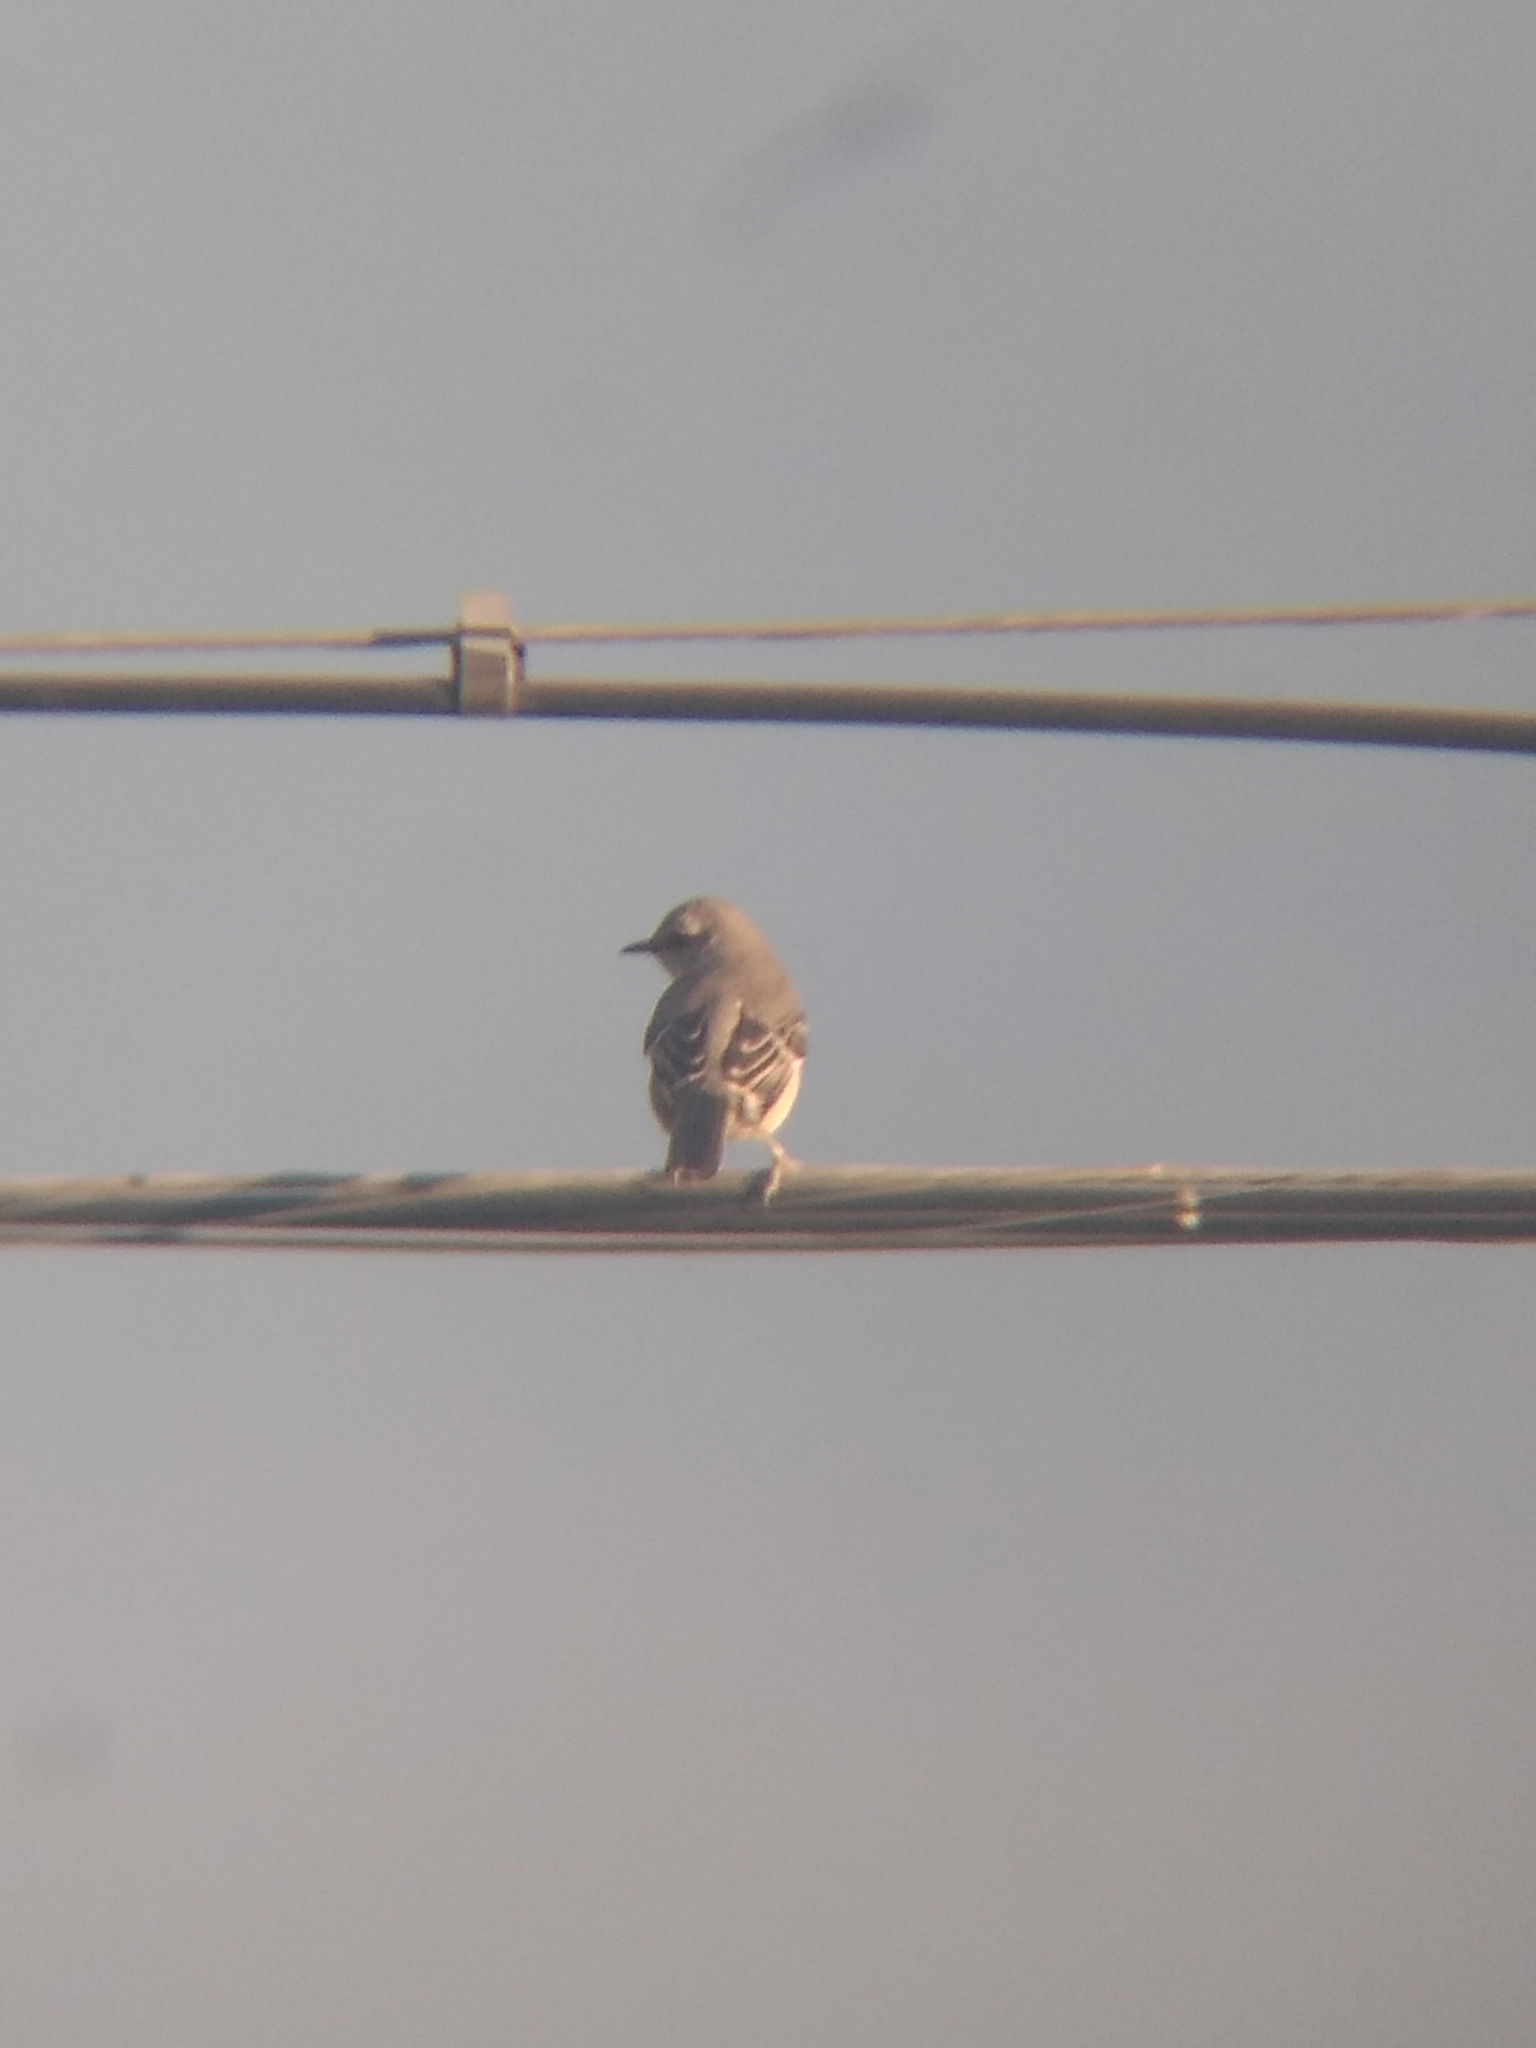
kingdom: Animalia
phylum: Chordata
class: Aves
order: Passeriformes
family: Mimidae
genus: Mimus
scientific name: Mimus polyglottos
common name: Northern mockingbird
